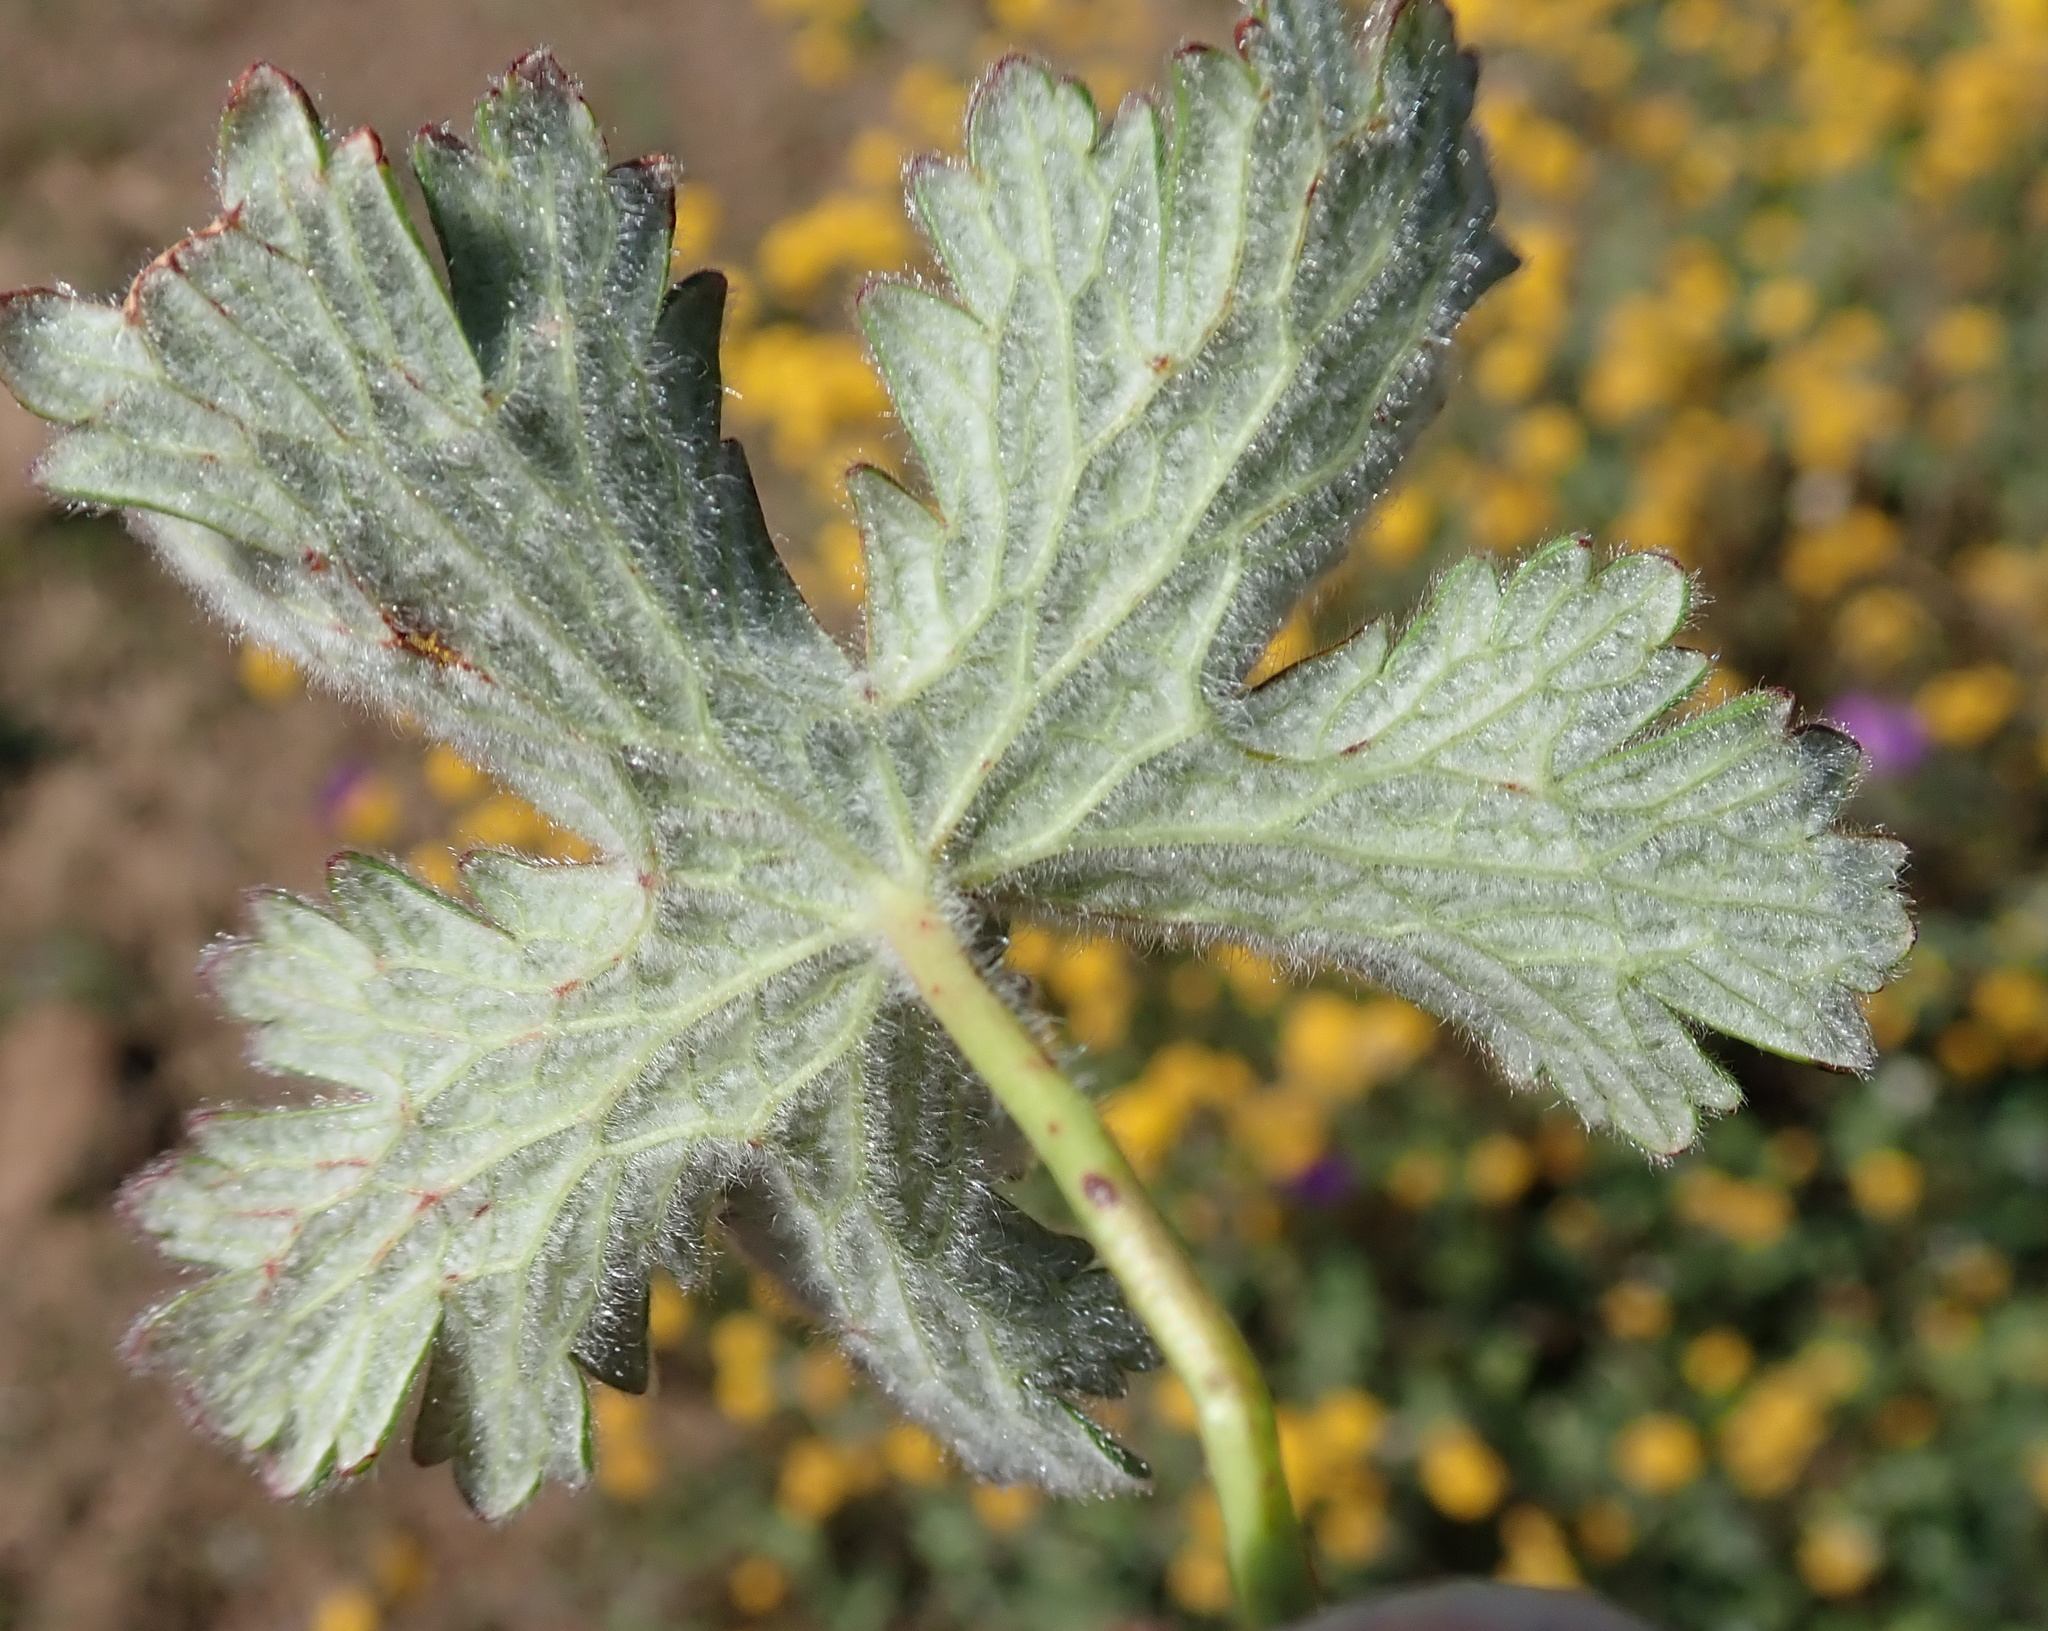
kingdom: Plantae
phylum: Tracheophyta
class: Magnoliopsida
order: Geraniales
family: Geraniaceae
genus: Geranium
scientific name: Geranium brycei
